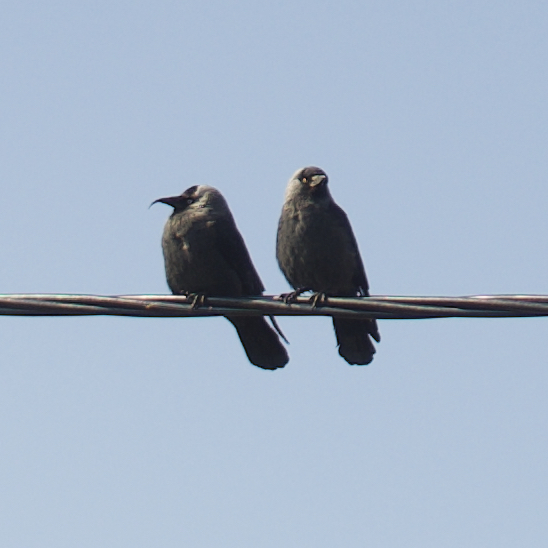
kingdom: Animalia
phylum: Chordata
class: Aves
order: Passeriformes
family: Corvidae
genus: Coloeus
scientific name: Coloeus monedula
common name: Western jackdaw
